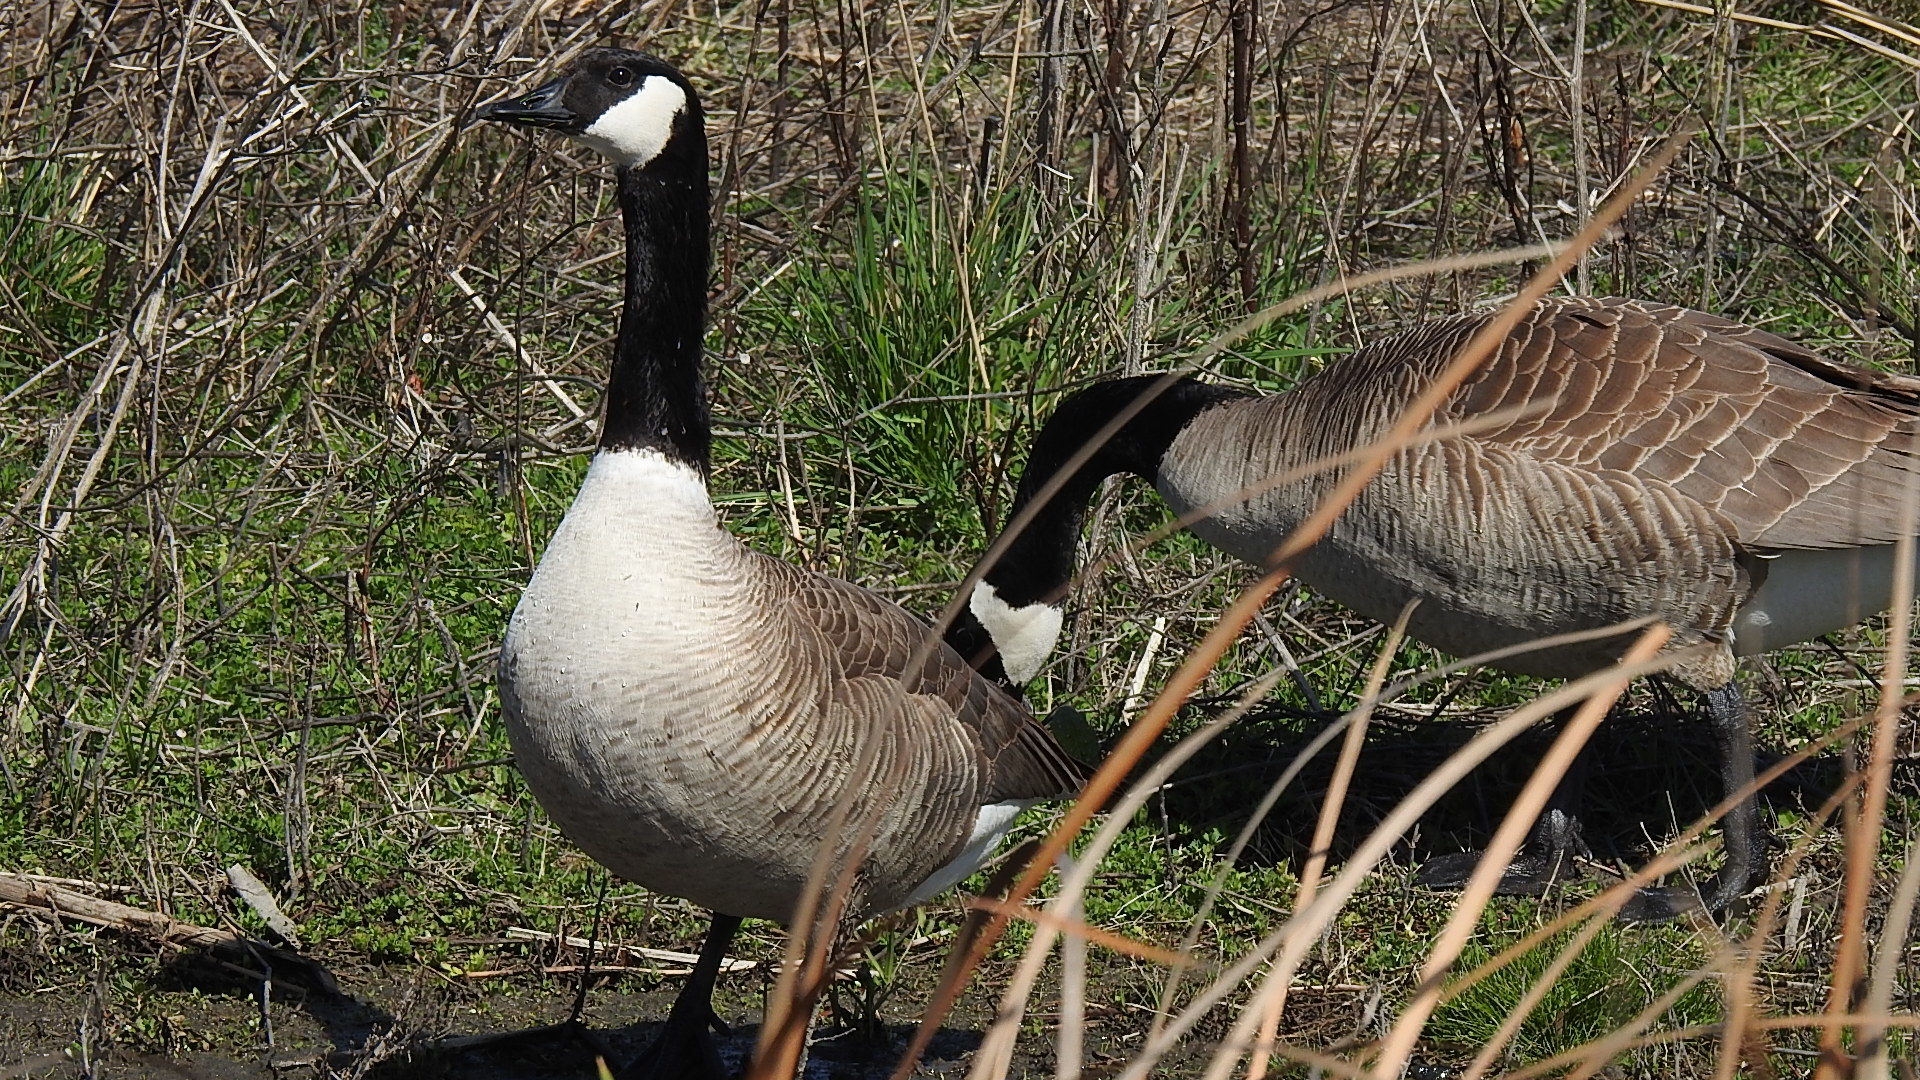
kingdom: Animalia
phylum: Chordata
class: Aves
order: Anseriformes
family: Anatidae
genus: Branta
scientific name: Branta canadensis
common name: Canada goose
